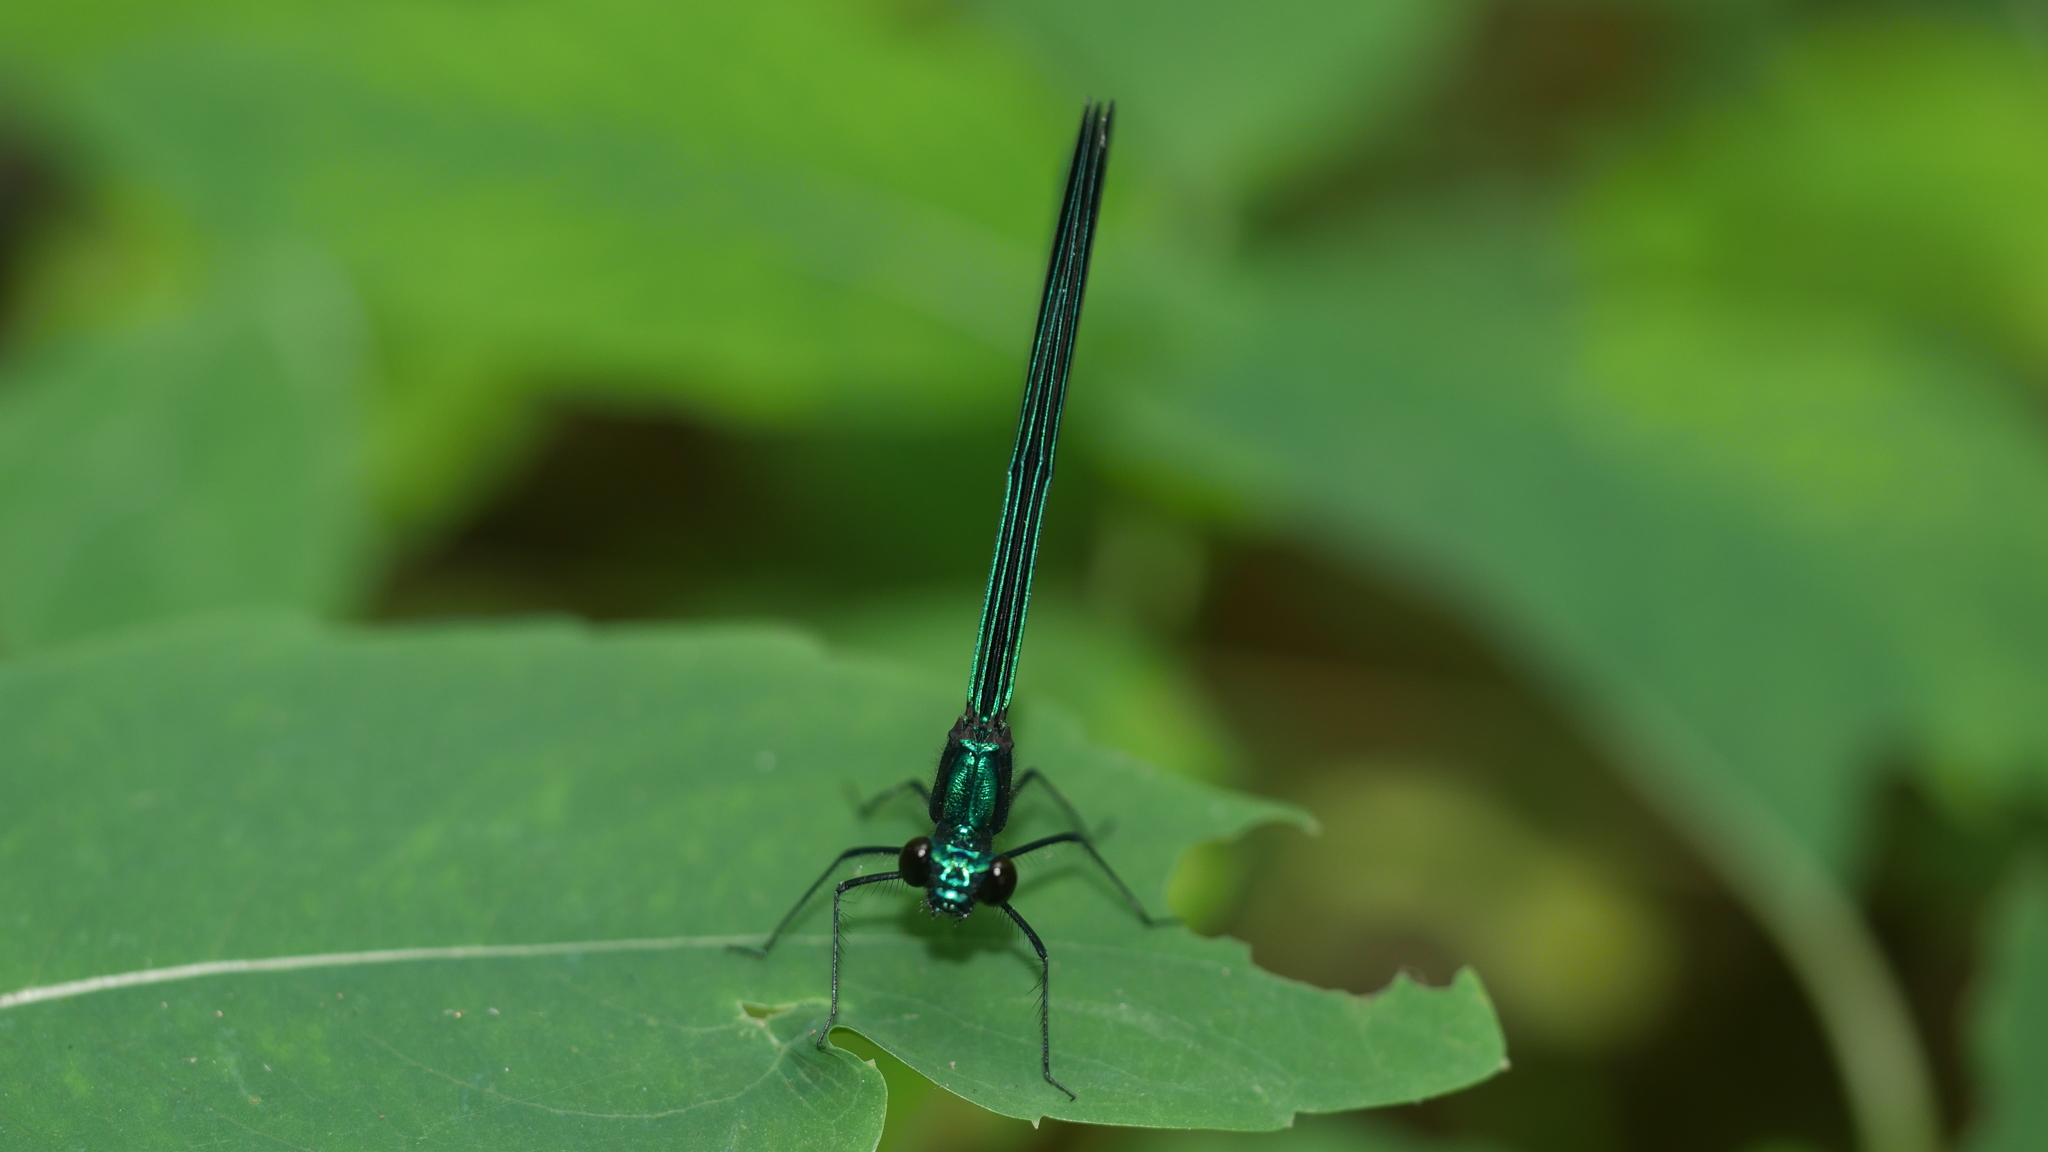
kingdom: Animalia
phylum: Arthropoda
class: Insecta
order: Odonata
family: Calopterygidae
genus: Calopteryx
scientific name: Calopteryx maculata
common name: Ebony jewelwing
